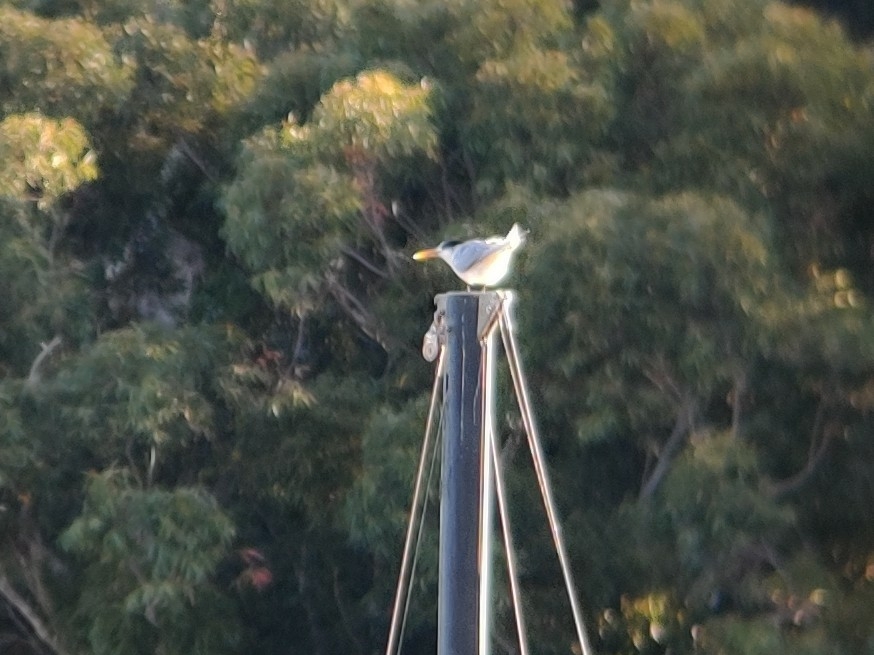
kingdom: Animalia
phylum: Chordata
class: Aves
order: Charadriiformes
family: Laridae
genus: Thalasseus
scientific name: Thalasseus bergii
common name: Greater crested tern
